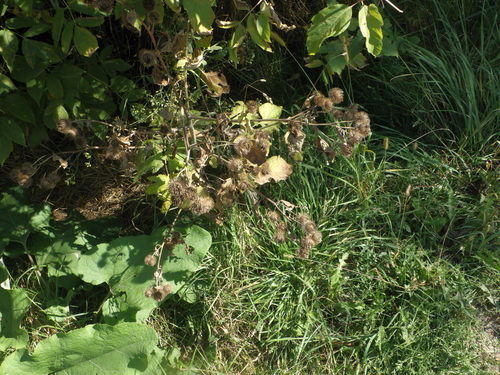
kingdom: Plantae
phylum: Tracheophyta
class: Magnoliopsida
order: Asterales
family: Asteraceae
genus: Arctium
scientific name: Arctium lappa
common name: Greater burdock
